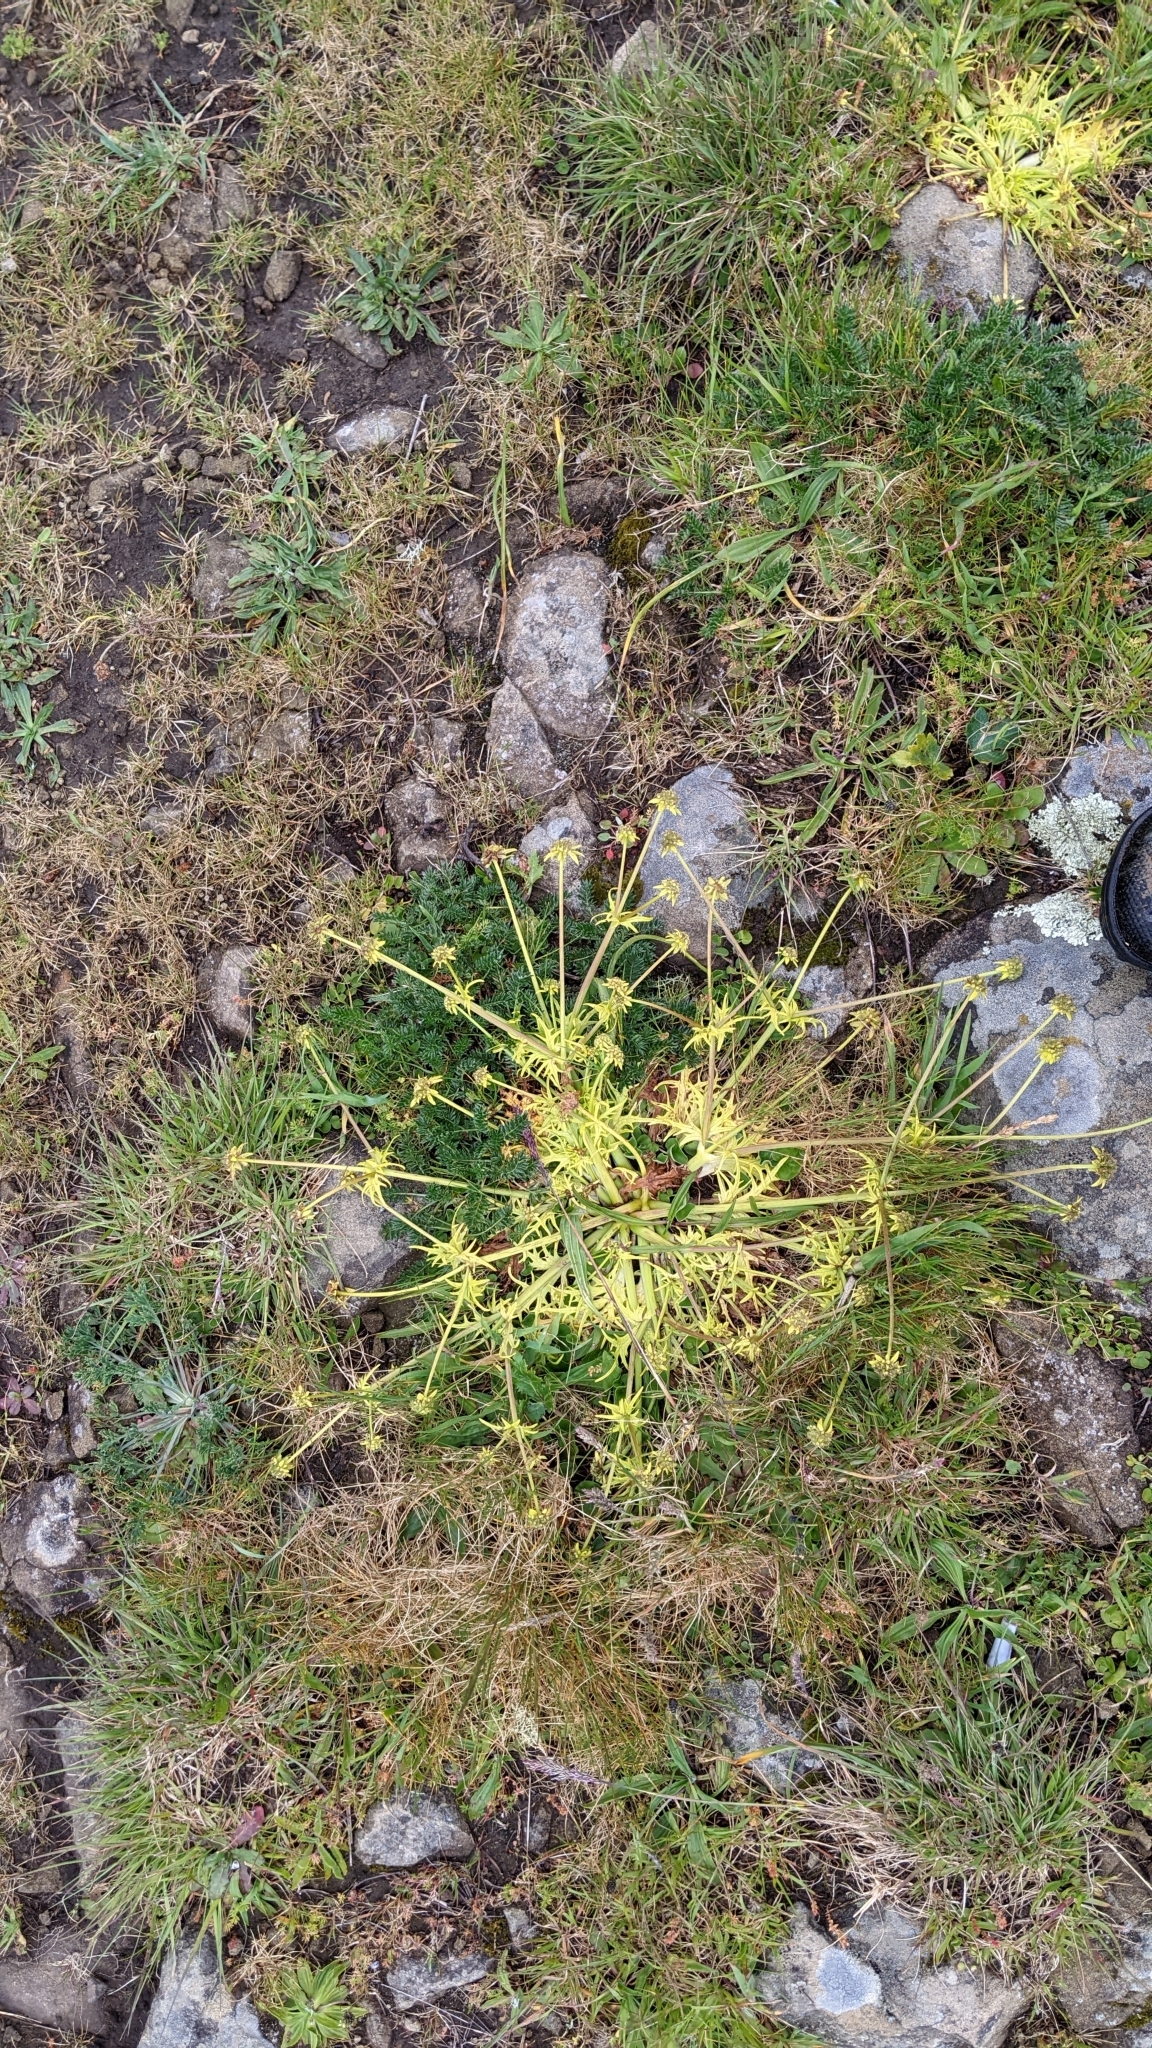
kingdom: Plantae
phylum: Tracheophyta
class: Magnoliopsida
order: Apiales
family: Apiaceae
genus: Sanicula
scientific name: Sanicula arctopoides
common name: Footsteps-of-spring
